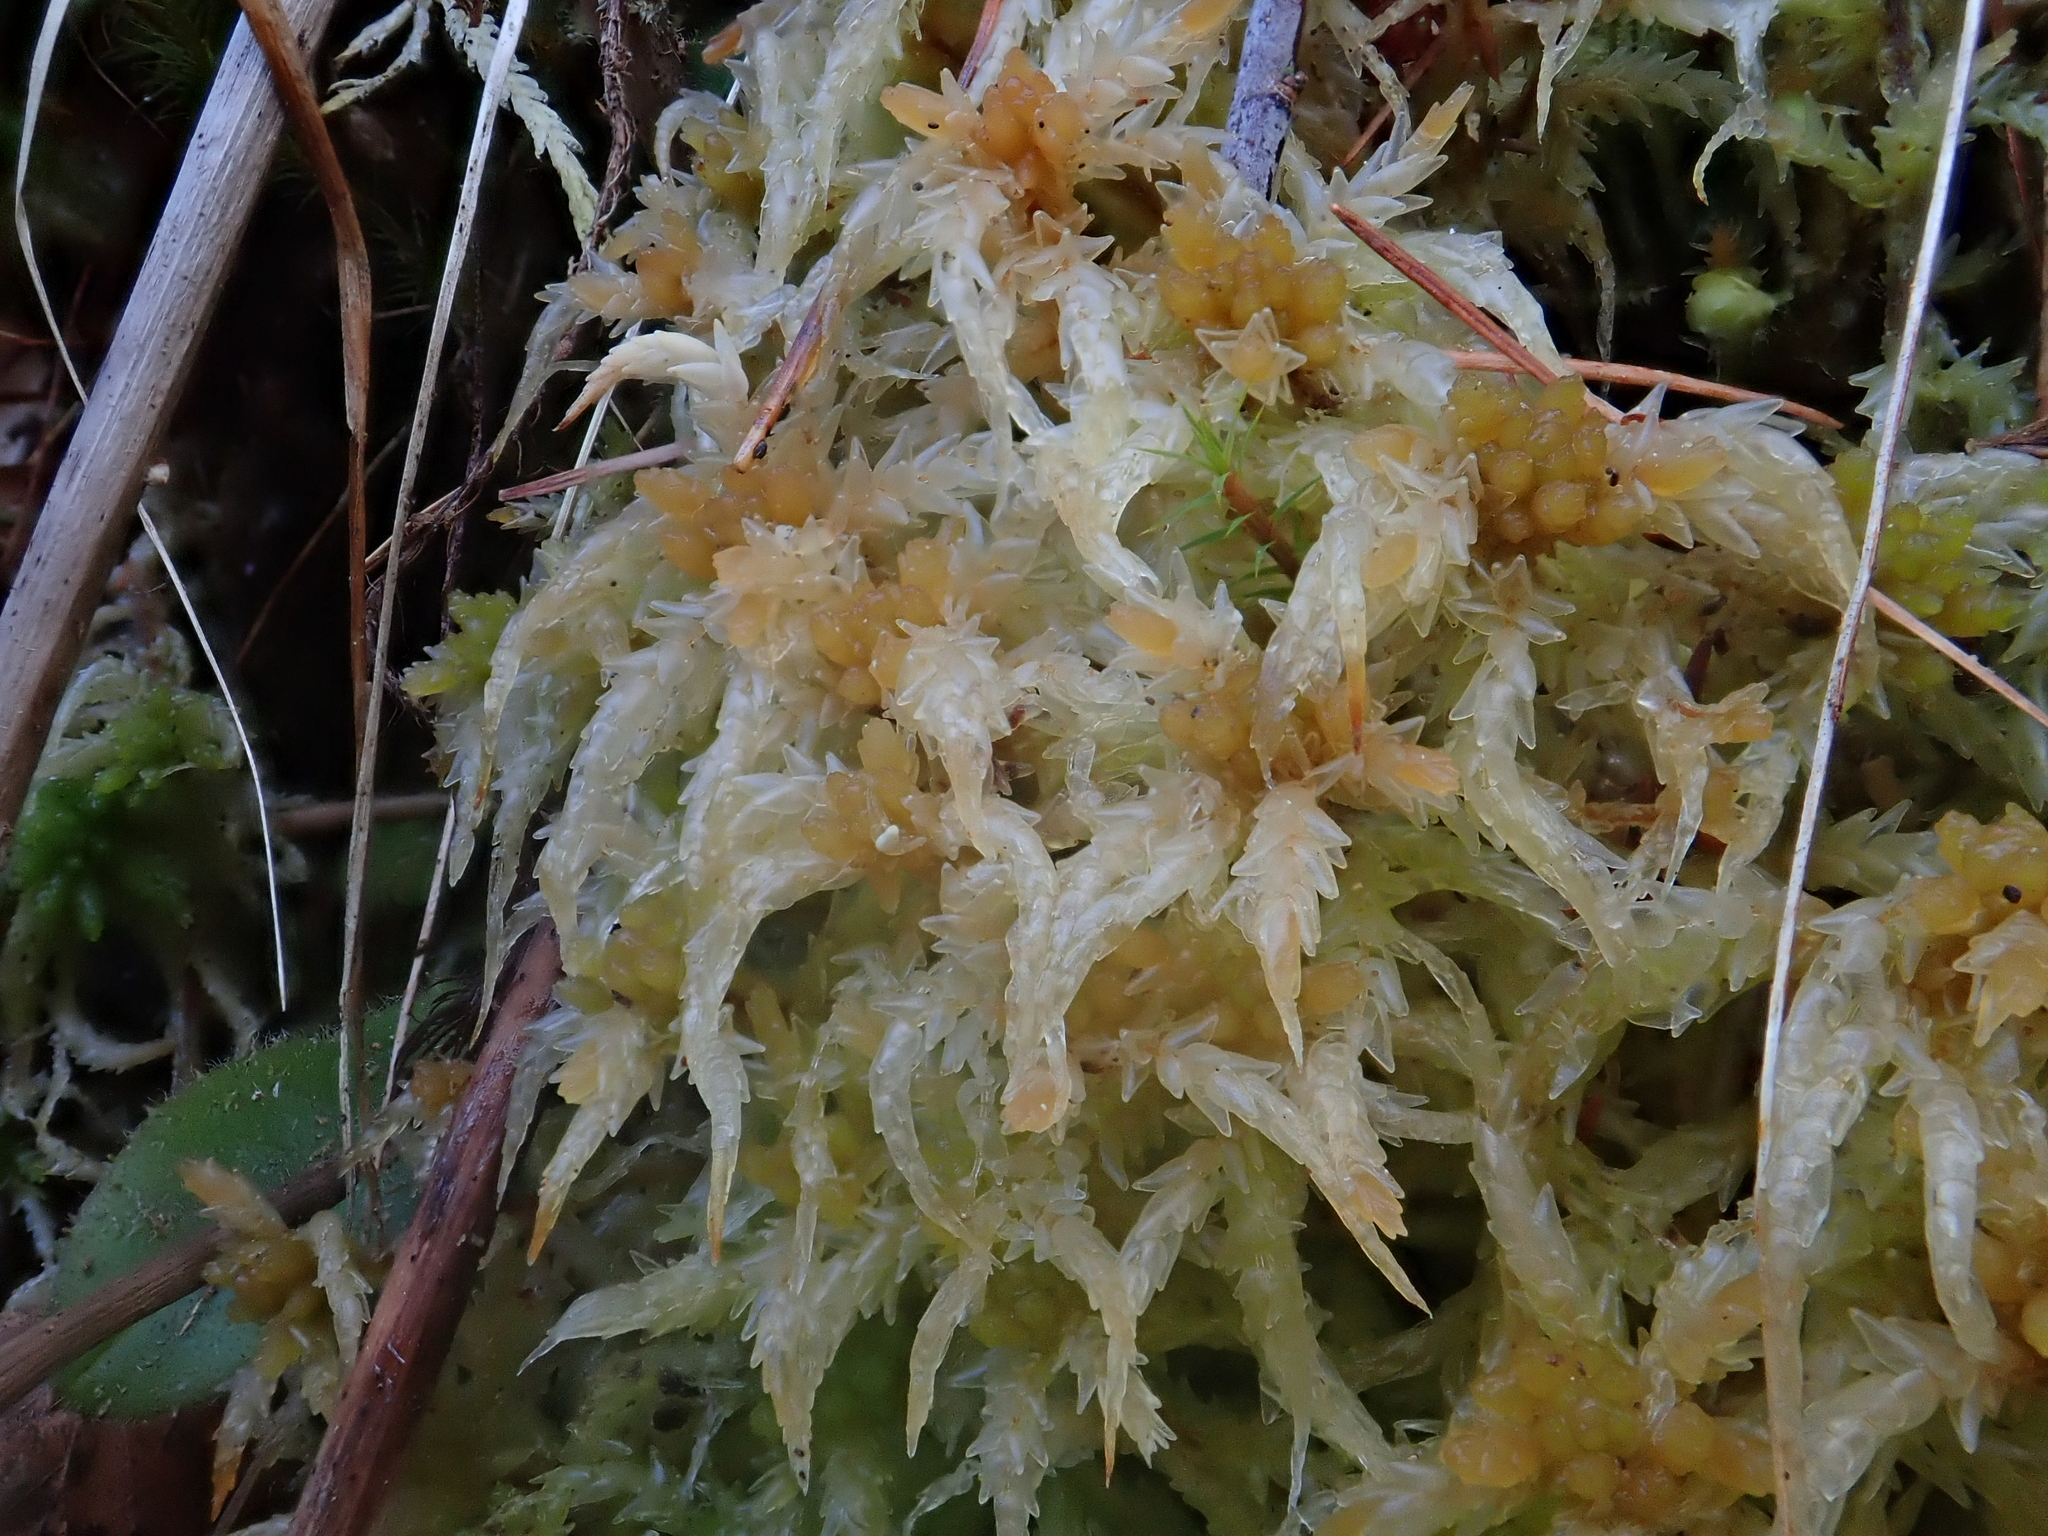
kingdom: Plantae
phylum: Bryophyta
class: Sphagnopsida
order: Sphagnales
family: Sphagnaceae
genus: Sphagnum
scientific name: Sphagnum palustre
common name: Blunt-leaved bog-moss
